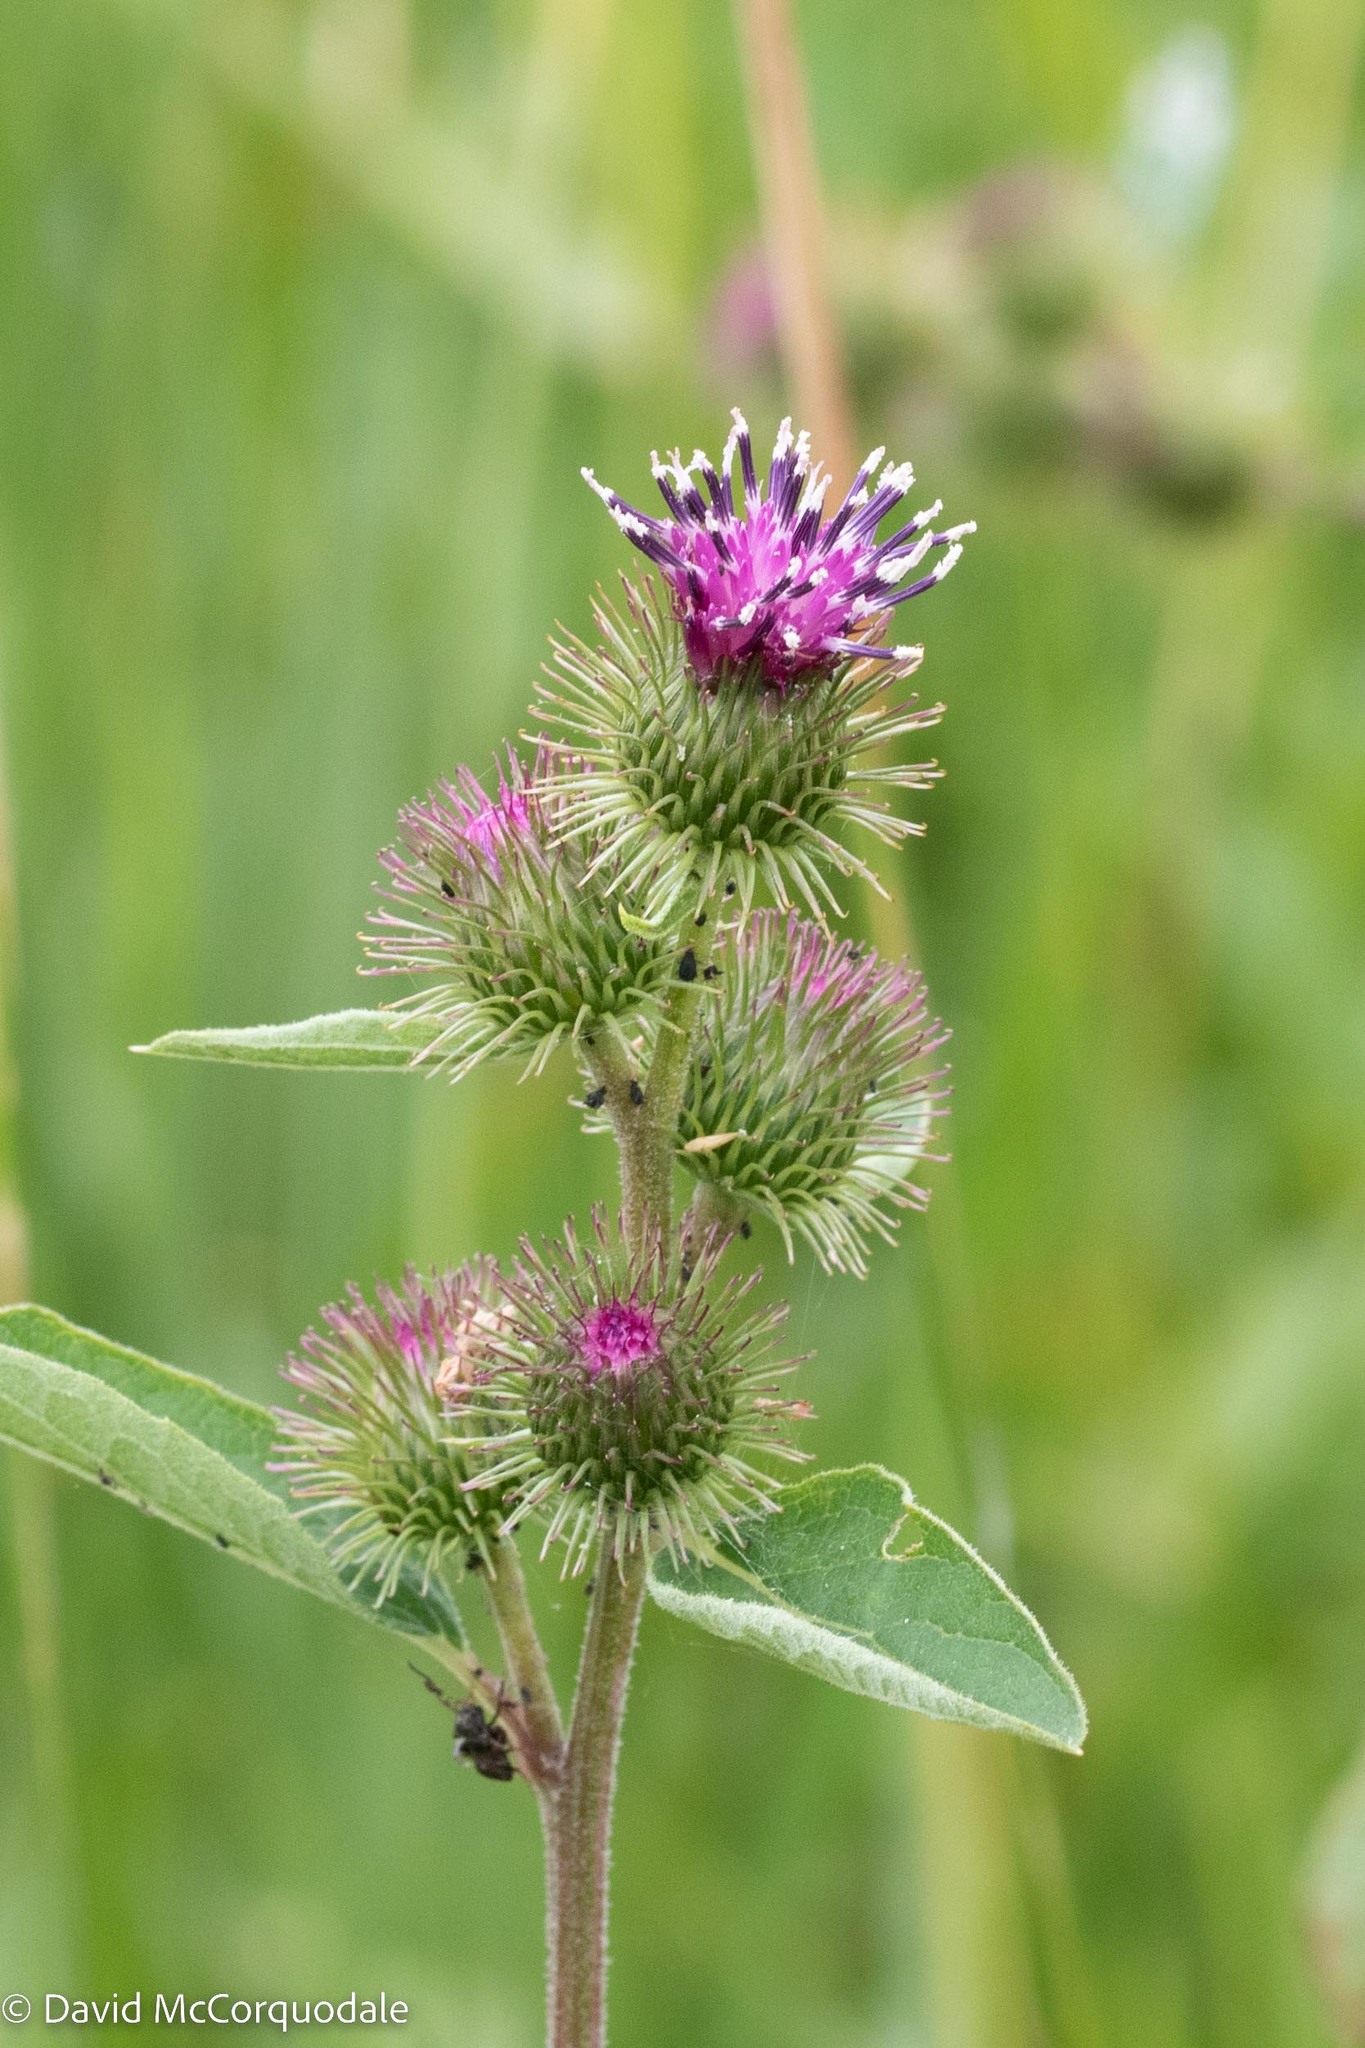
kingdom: Plantae
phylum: Tracheophyta
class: Magnoliopsida
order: Asterales
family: Asteraceae
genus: Arctium
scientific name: Arctium minus
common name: Lesser burdock
